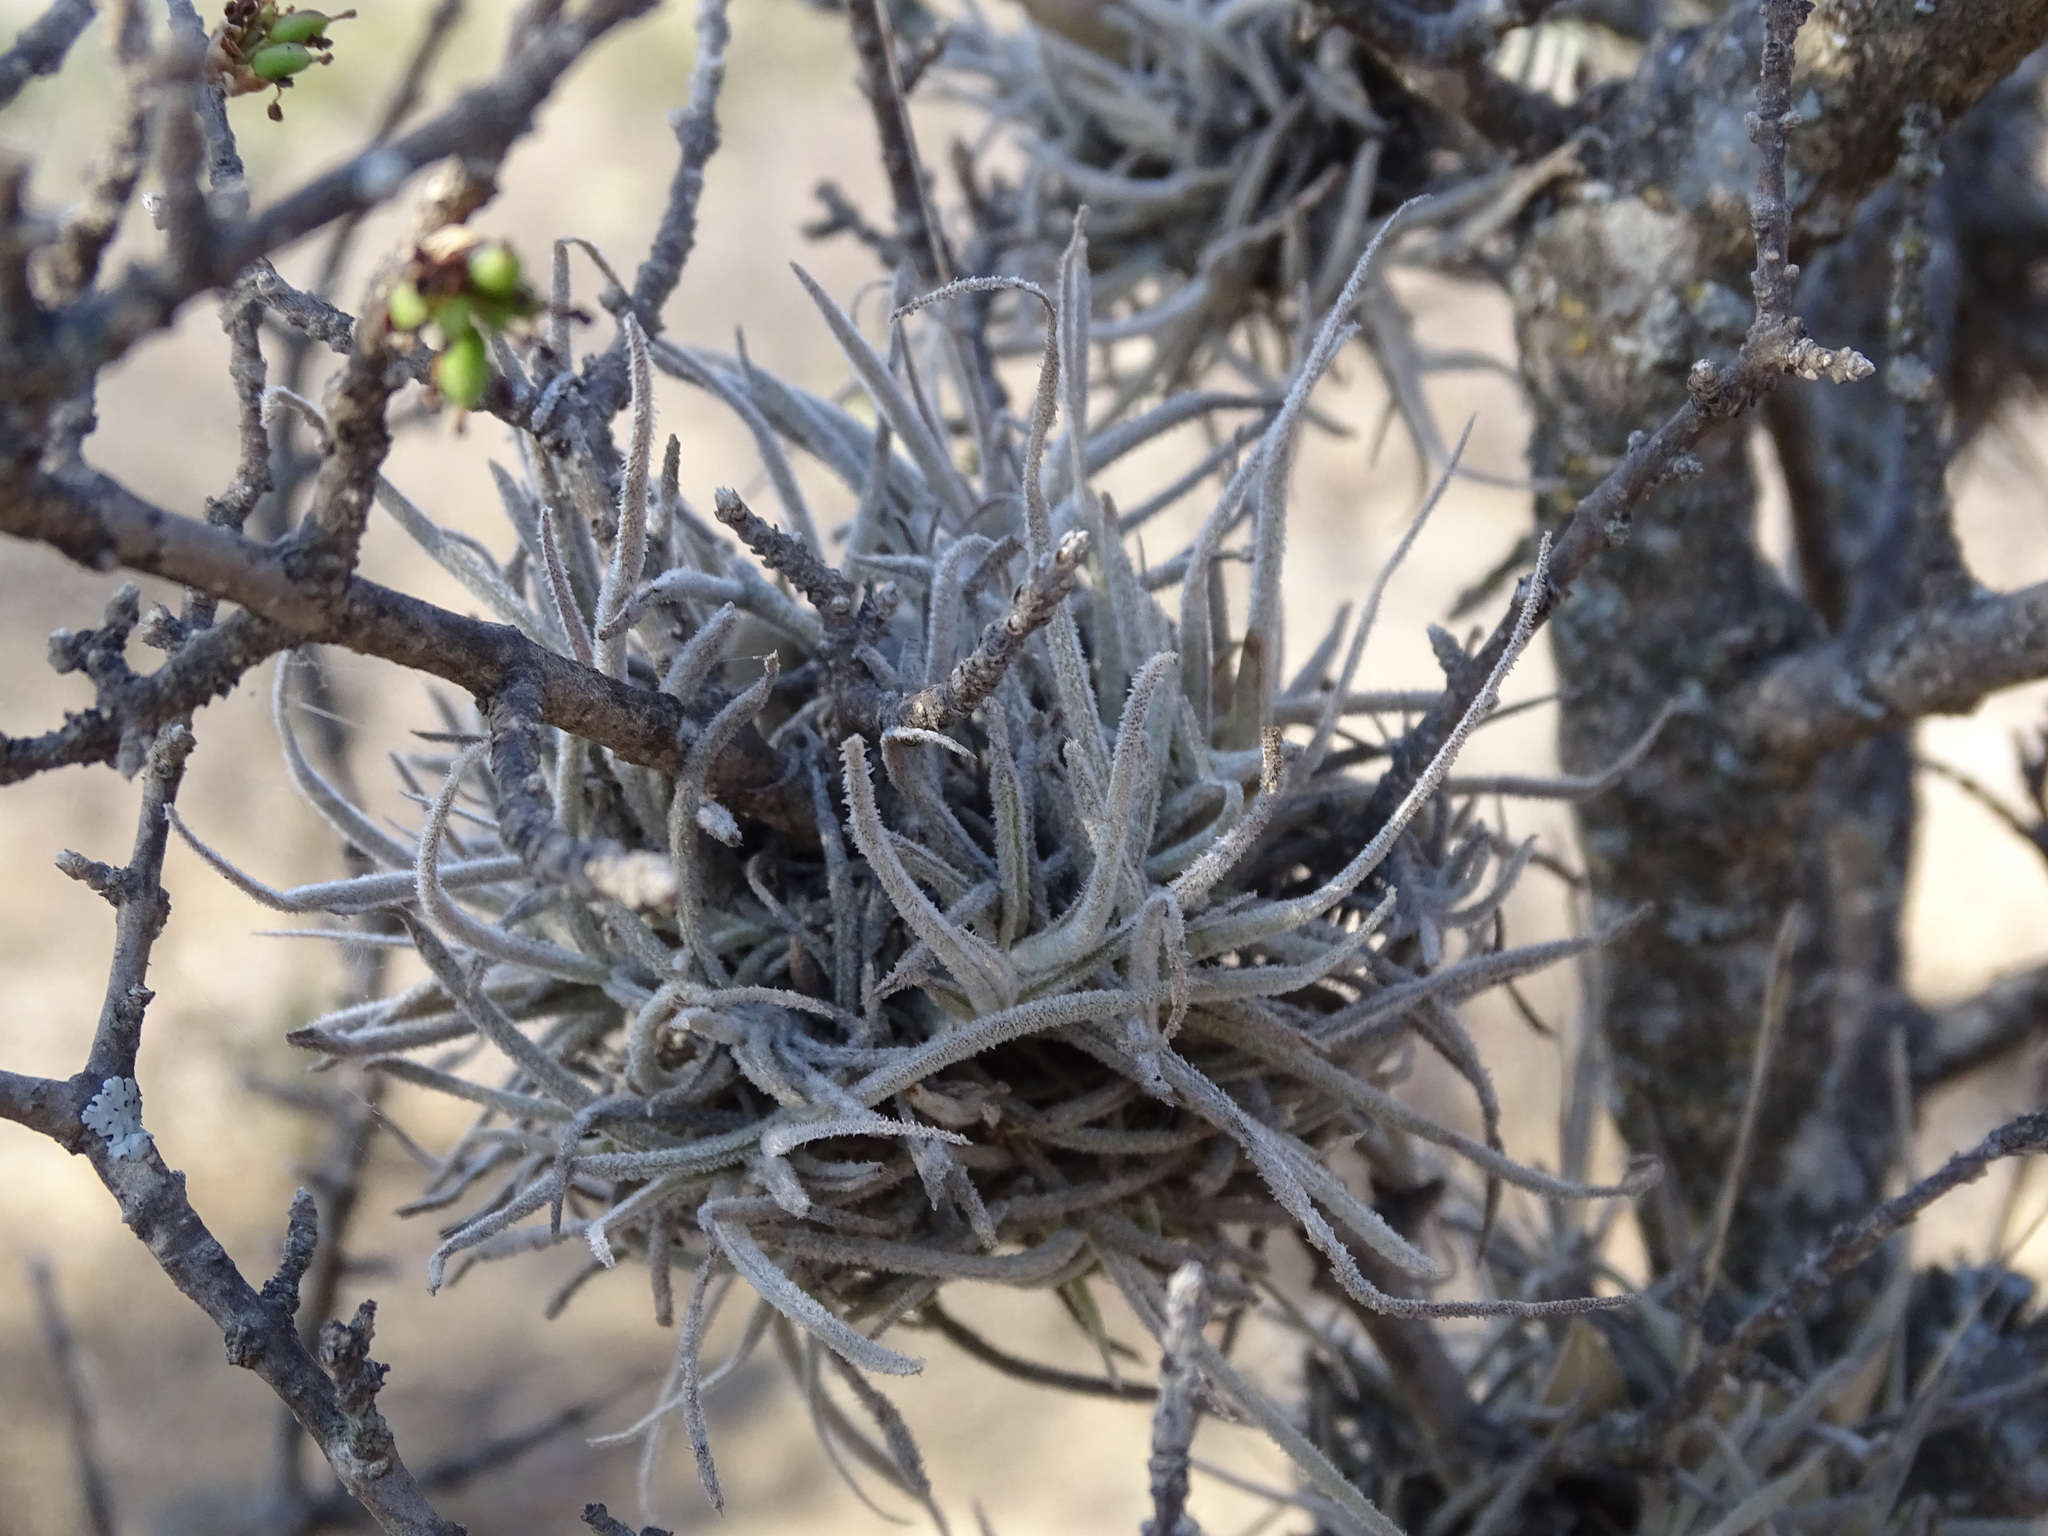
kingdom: Plantae
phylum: Tracheophyta
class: Liliopsida
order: Poales
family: Bromeliaceae
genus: Tillandsia
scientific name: Tillandsia recurvata
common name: Small ballmoss
